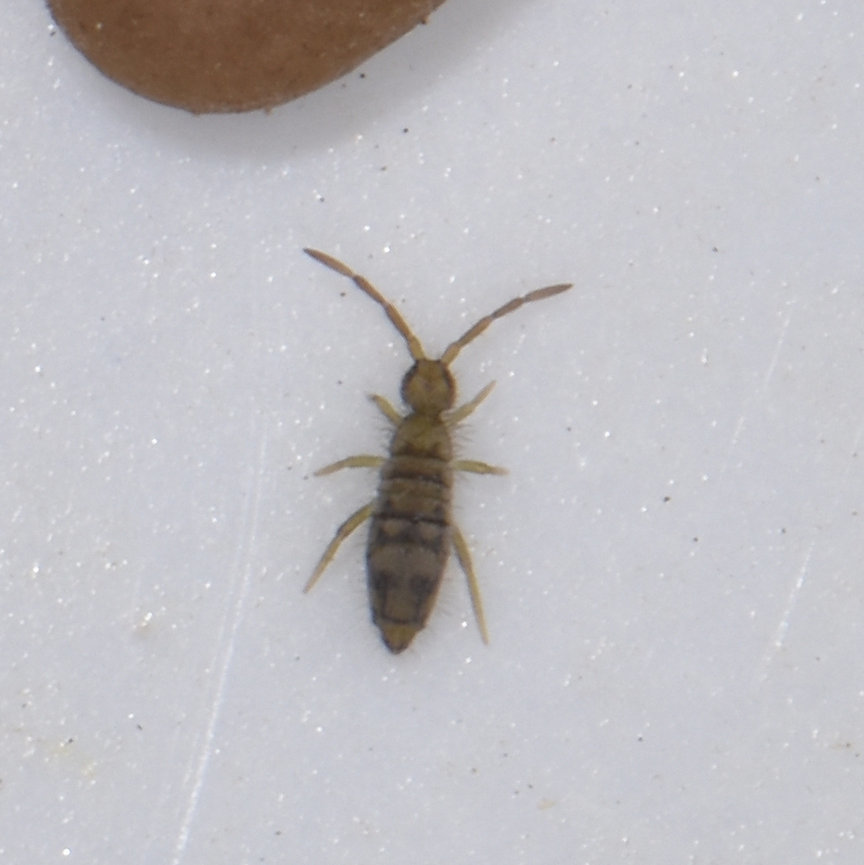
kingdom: Animalia
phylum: Arthropoda
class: Collembola
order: Entomobryomorpha
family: Entomobryidae
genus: Entomobrya
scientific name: Entomobrya nivalis
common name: Cosmopolitan springtail
